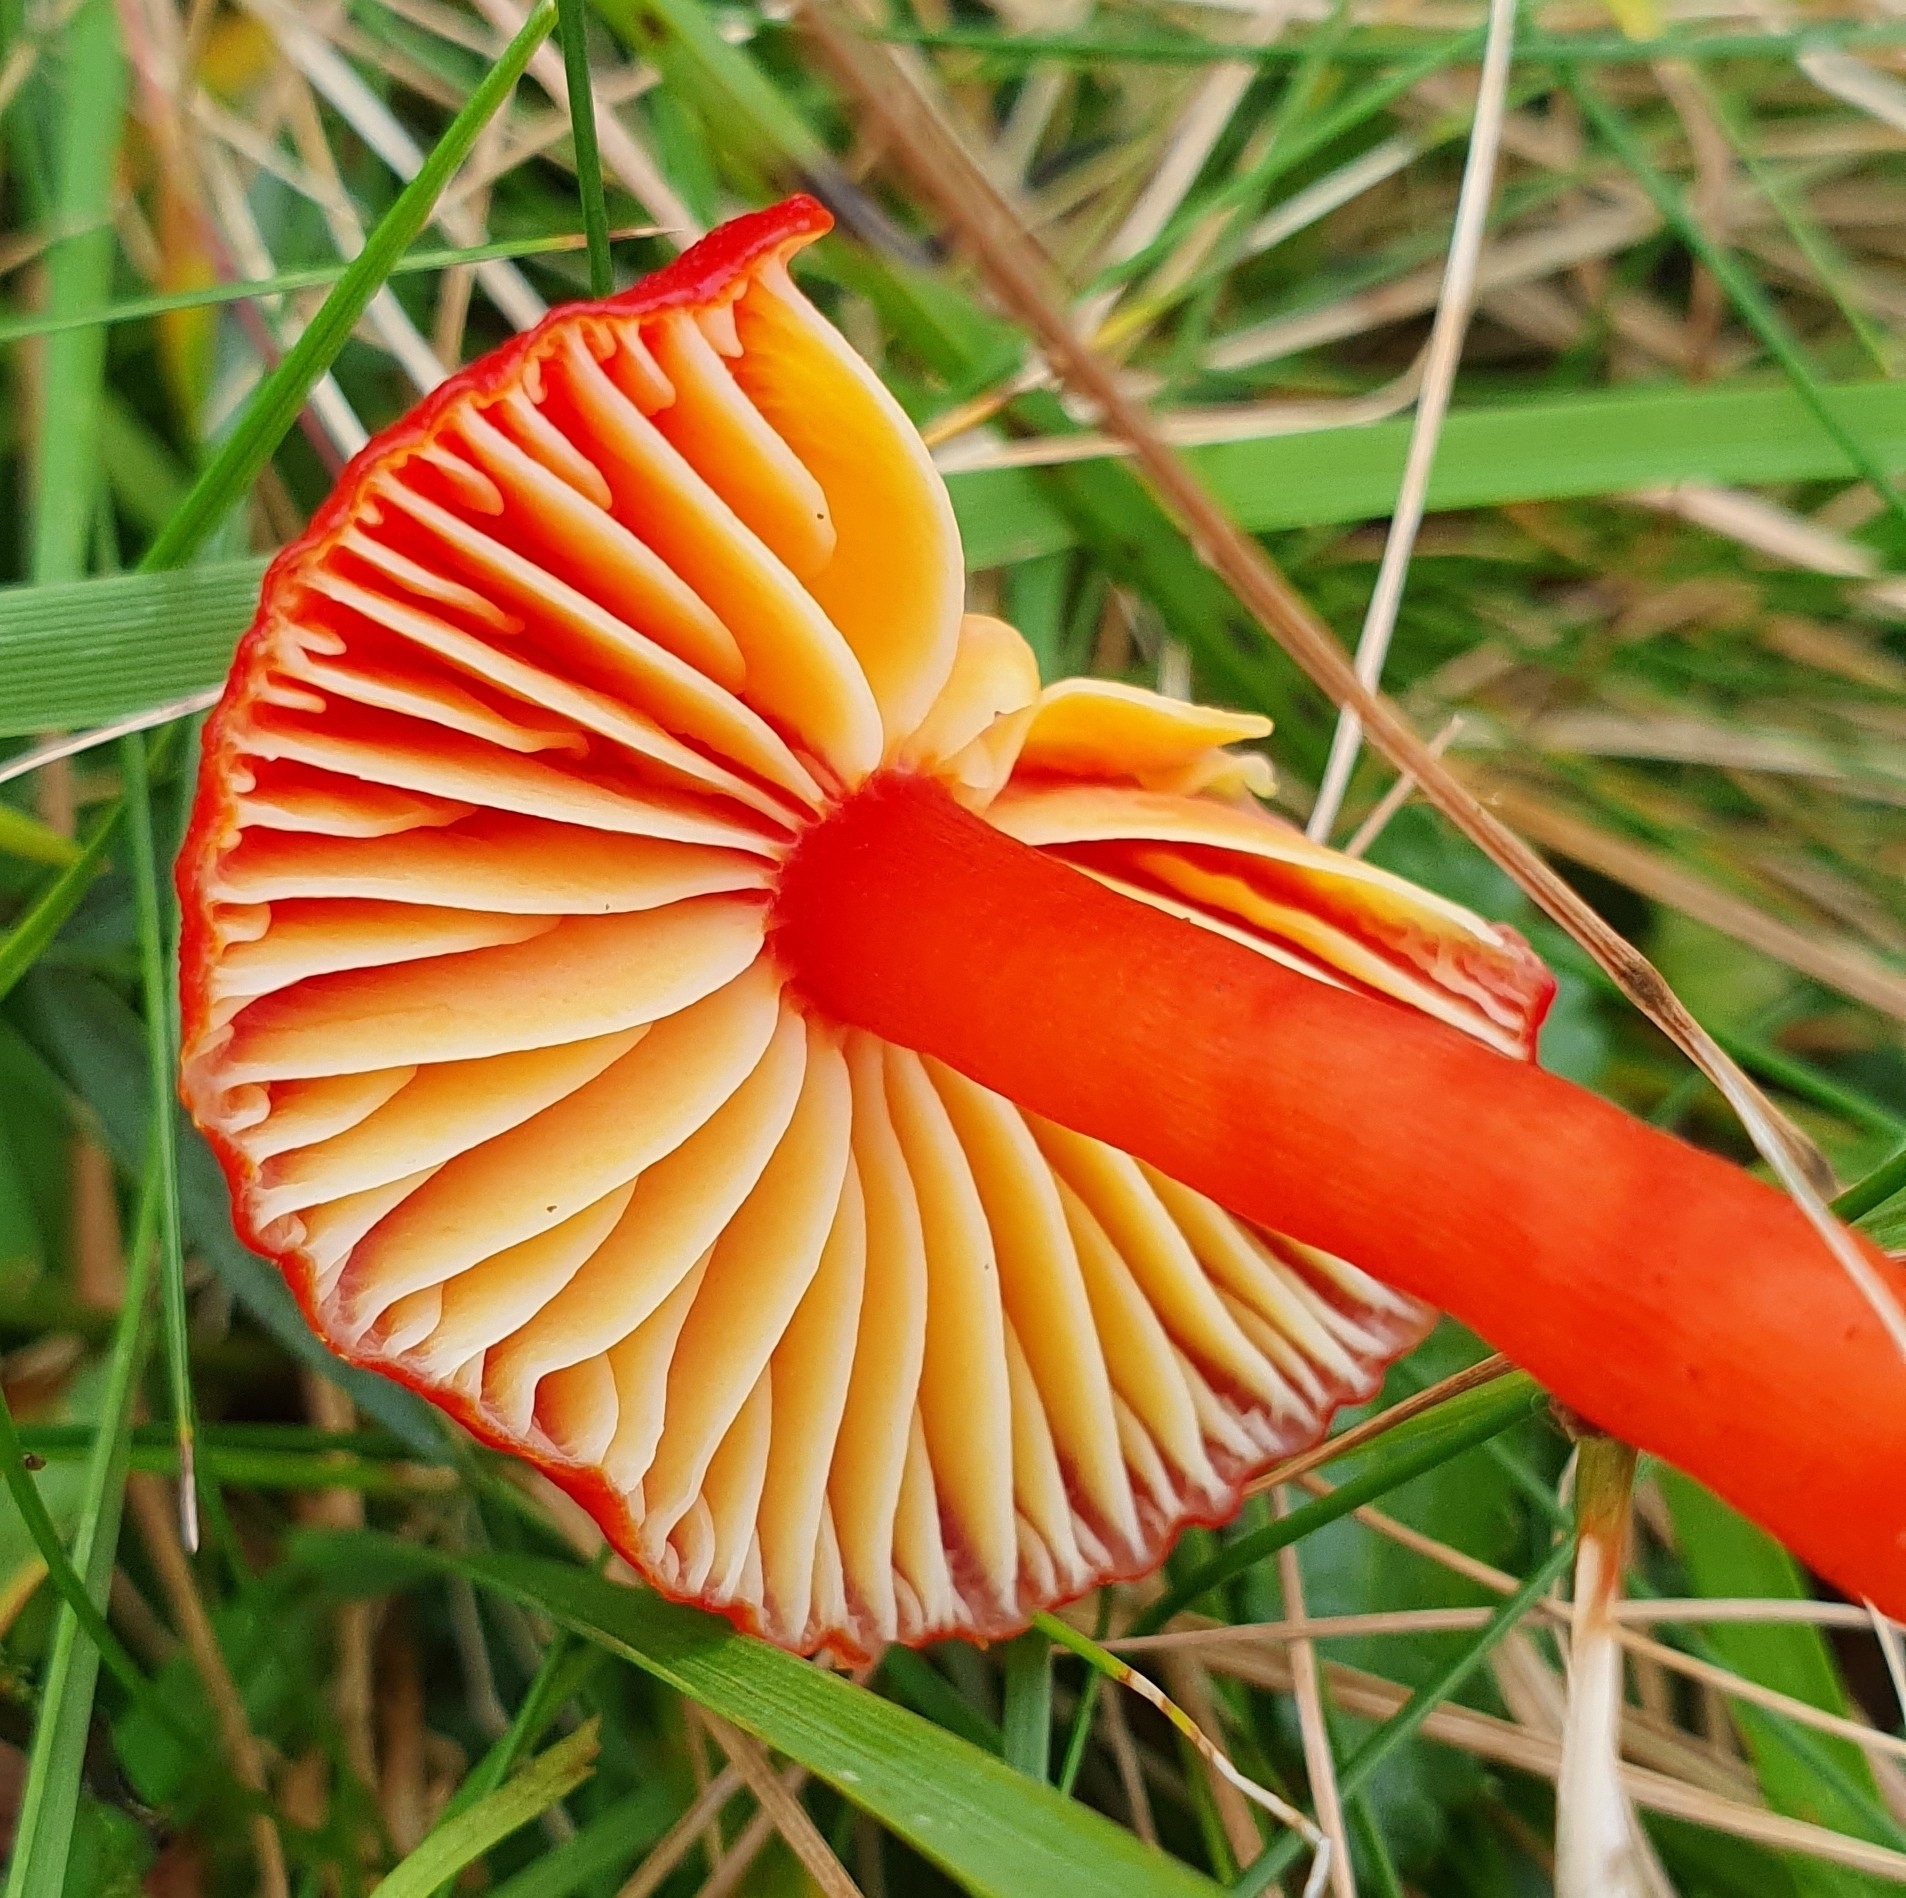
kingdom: Fungi
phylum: Basidiomycota
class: Agaricomycetes
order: Agaricales
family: Hygrophoraceae
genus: Hygrocybe
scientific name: Hygrocybe coccinea
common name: Scarlet hood
